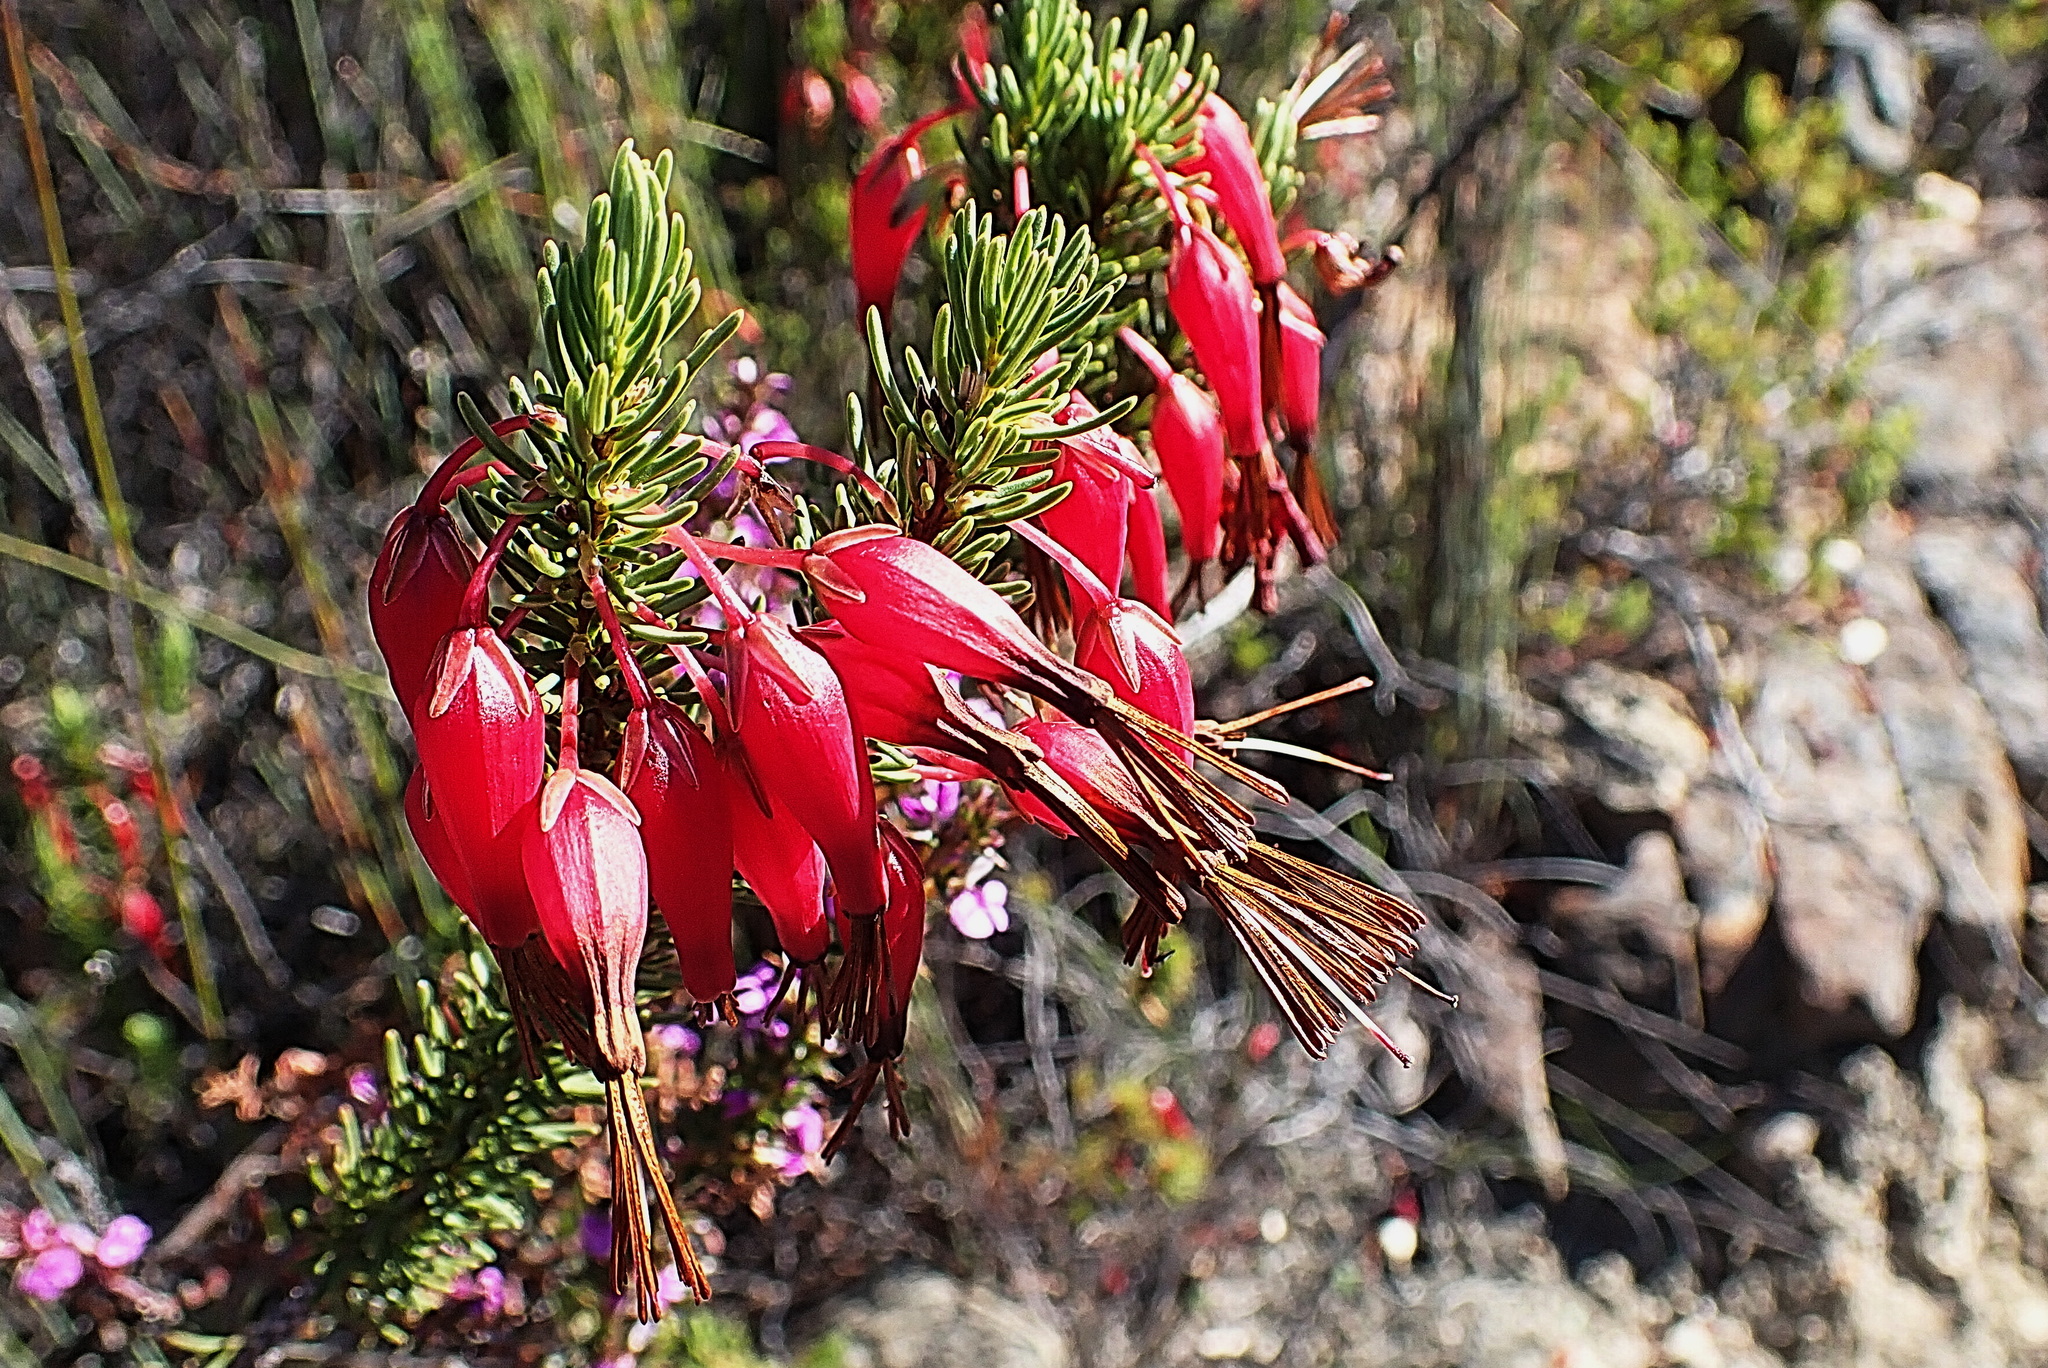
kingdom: Plantae
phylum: Tracheophyta
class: Magnoliopsida
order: Ericales
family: Ericaceae
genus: Erica
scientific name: Erica plukenetii
